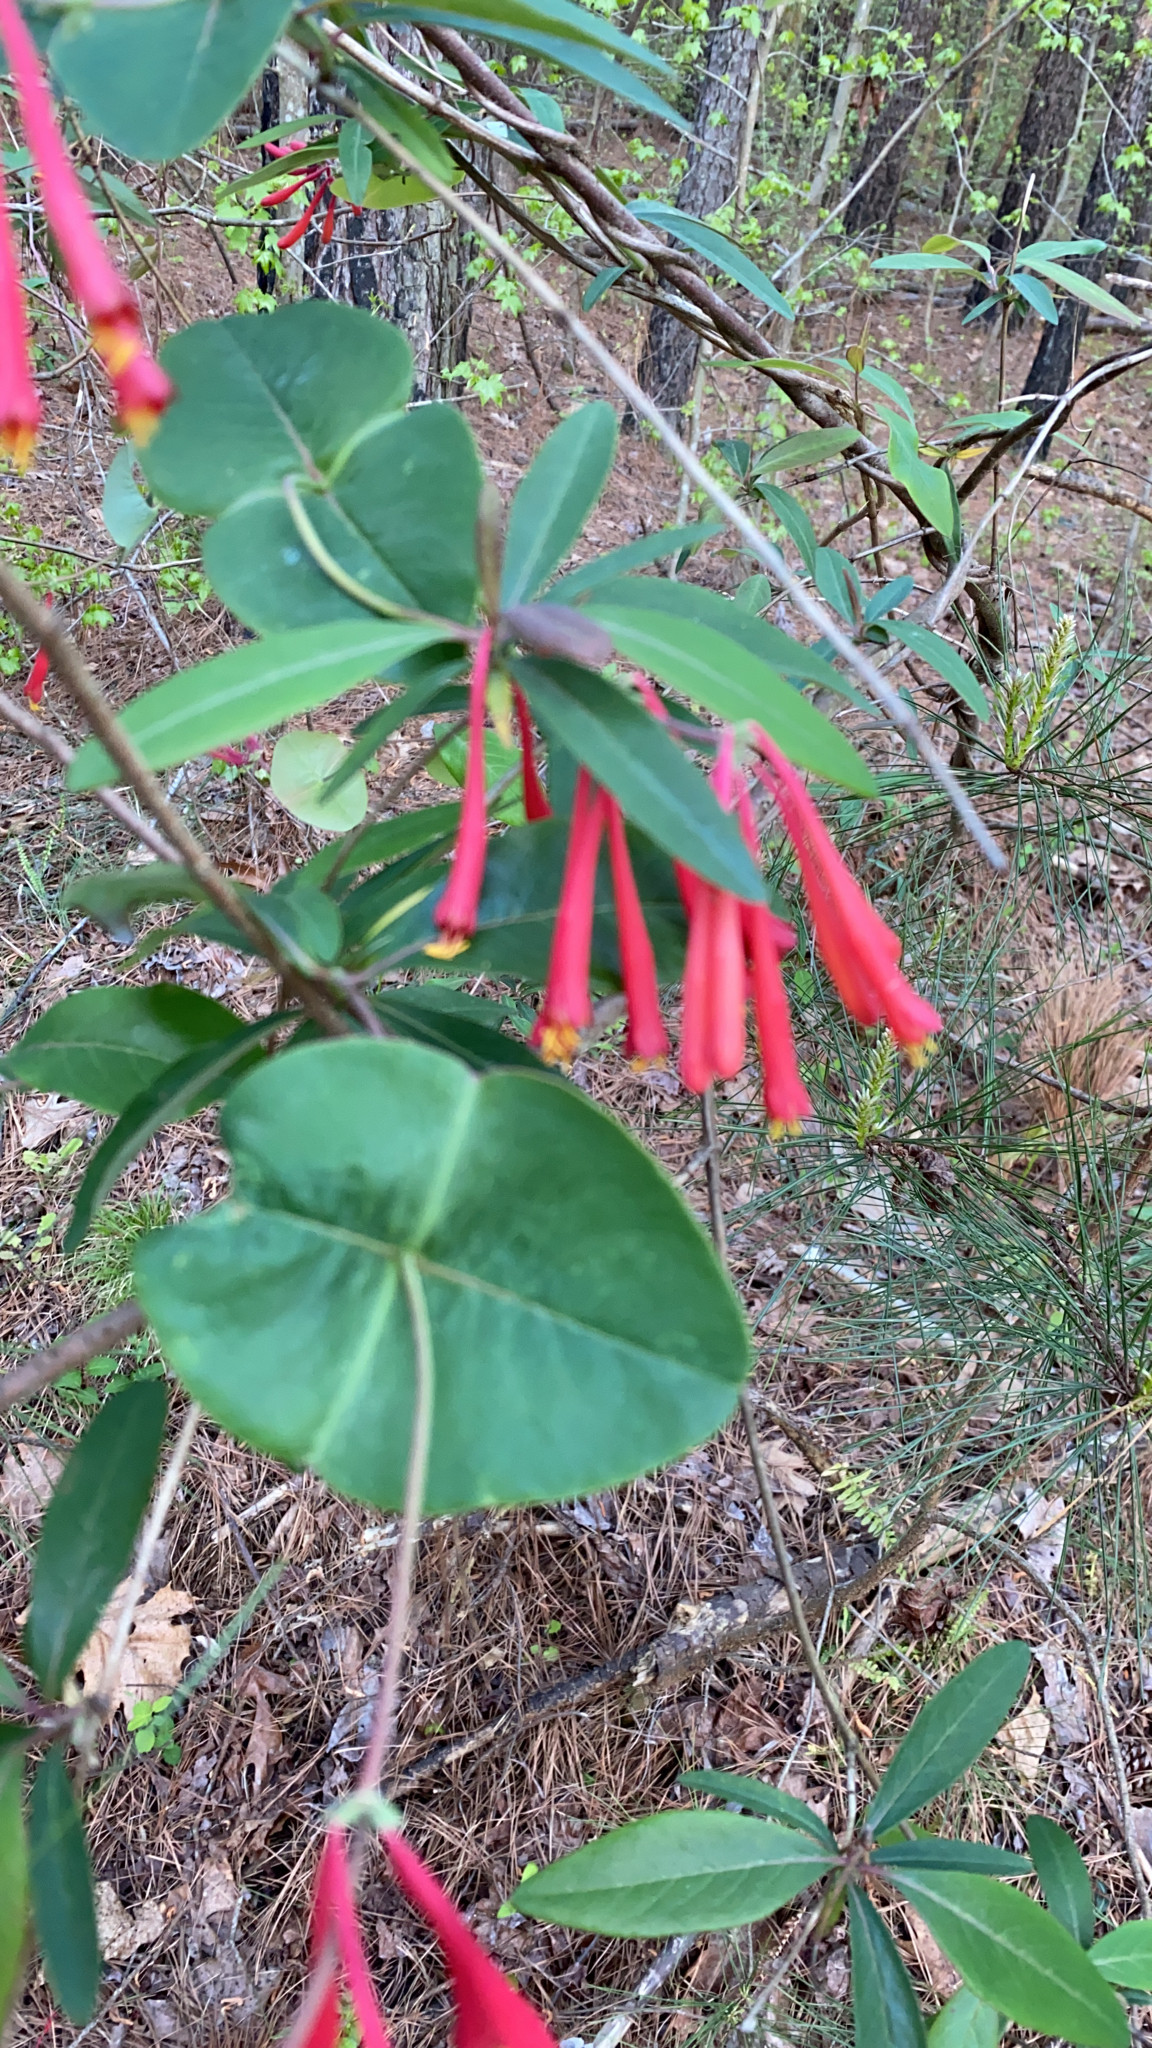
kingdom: Plantae
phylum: Tracheophyta
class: Magnoliopsida
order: Dipsacales
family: Caprifoliaceae
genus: Lonicera
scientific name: Lonicera sempervirens
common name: Coral honeysuckle
